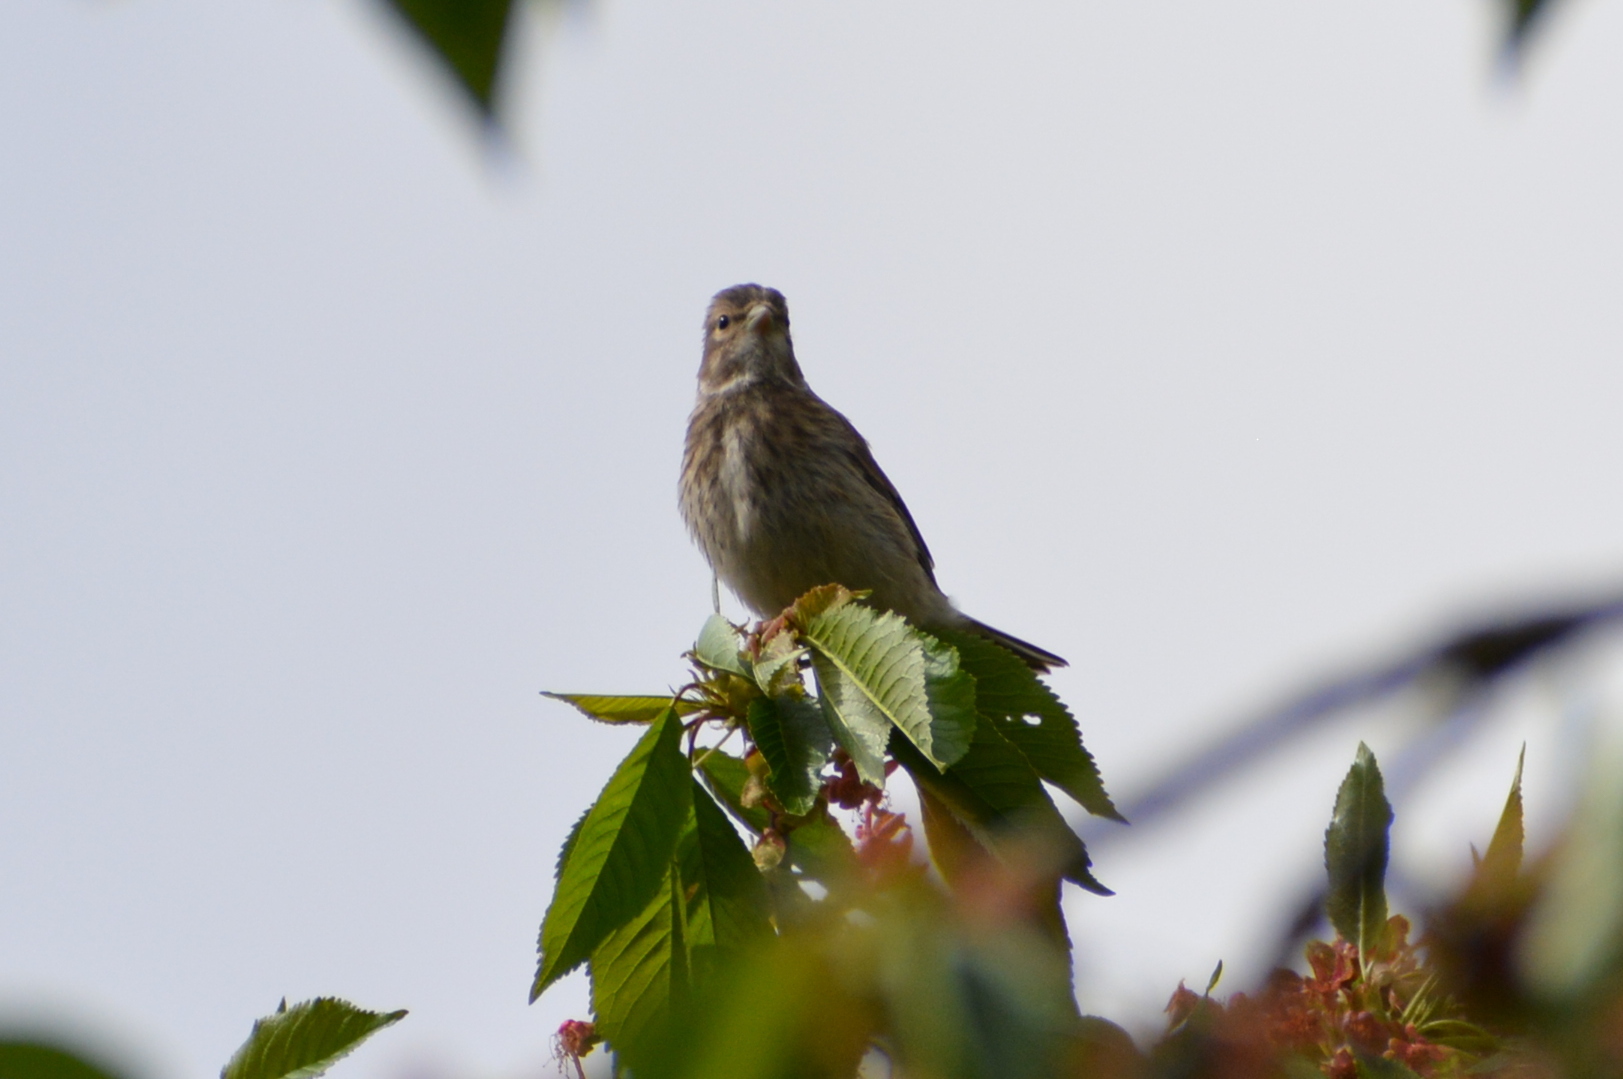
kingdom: Animalia
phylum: Chordata
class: Aves
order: Passeriformes
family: Fringillidae
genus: Linaria
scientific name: Linaria cannabina
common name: Common linnet
